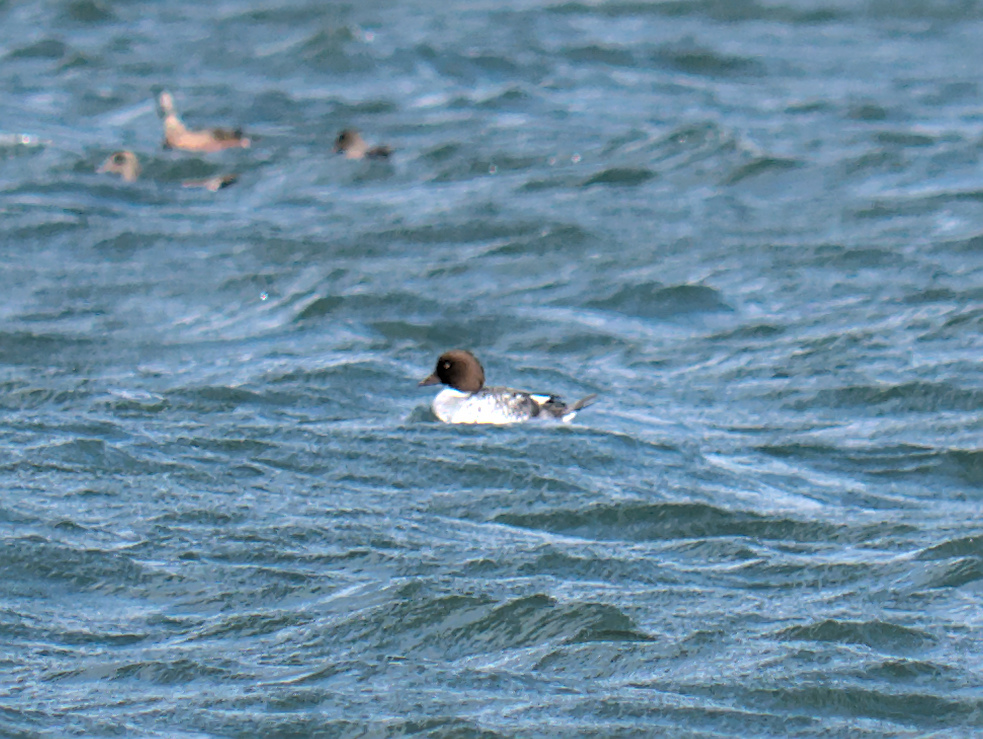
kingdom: Animalia
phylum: Chordata
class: Aves
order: Anseriformes
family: Anatidae
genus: Bucephala
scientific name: Bucephala clangula
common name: Common goldeneye
